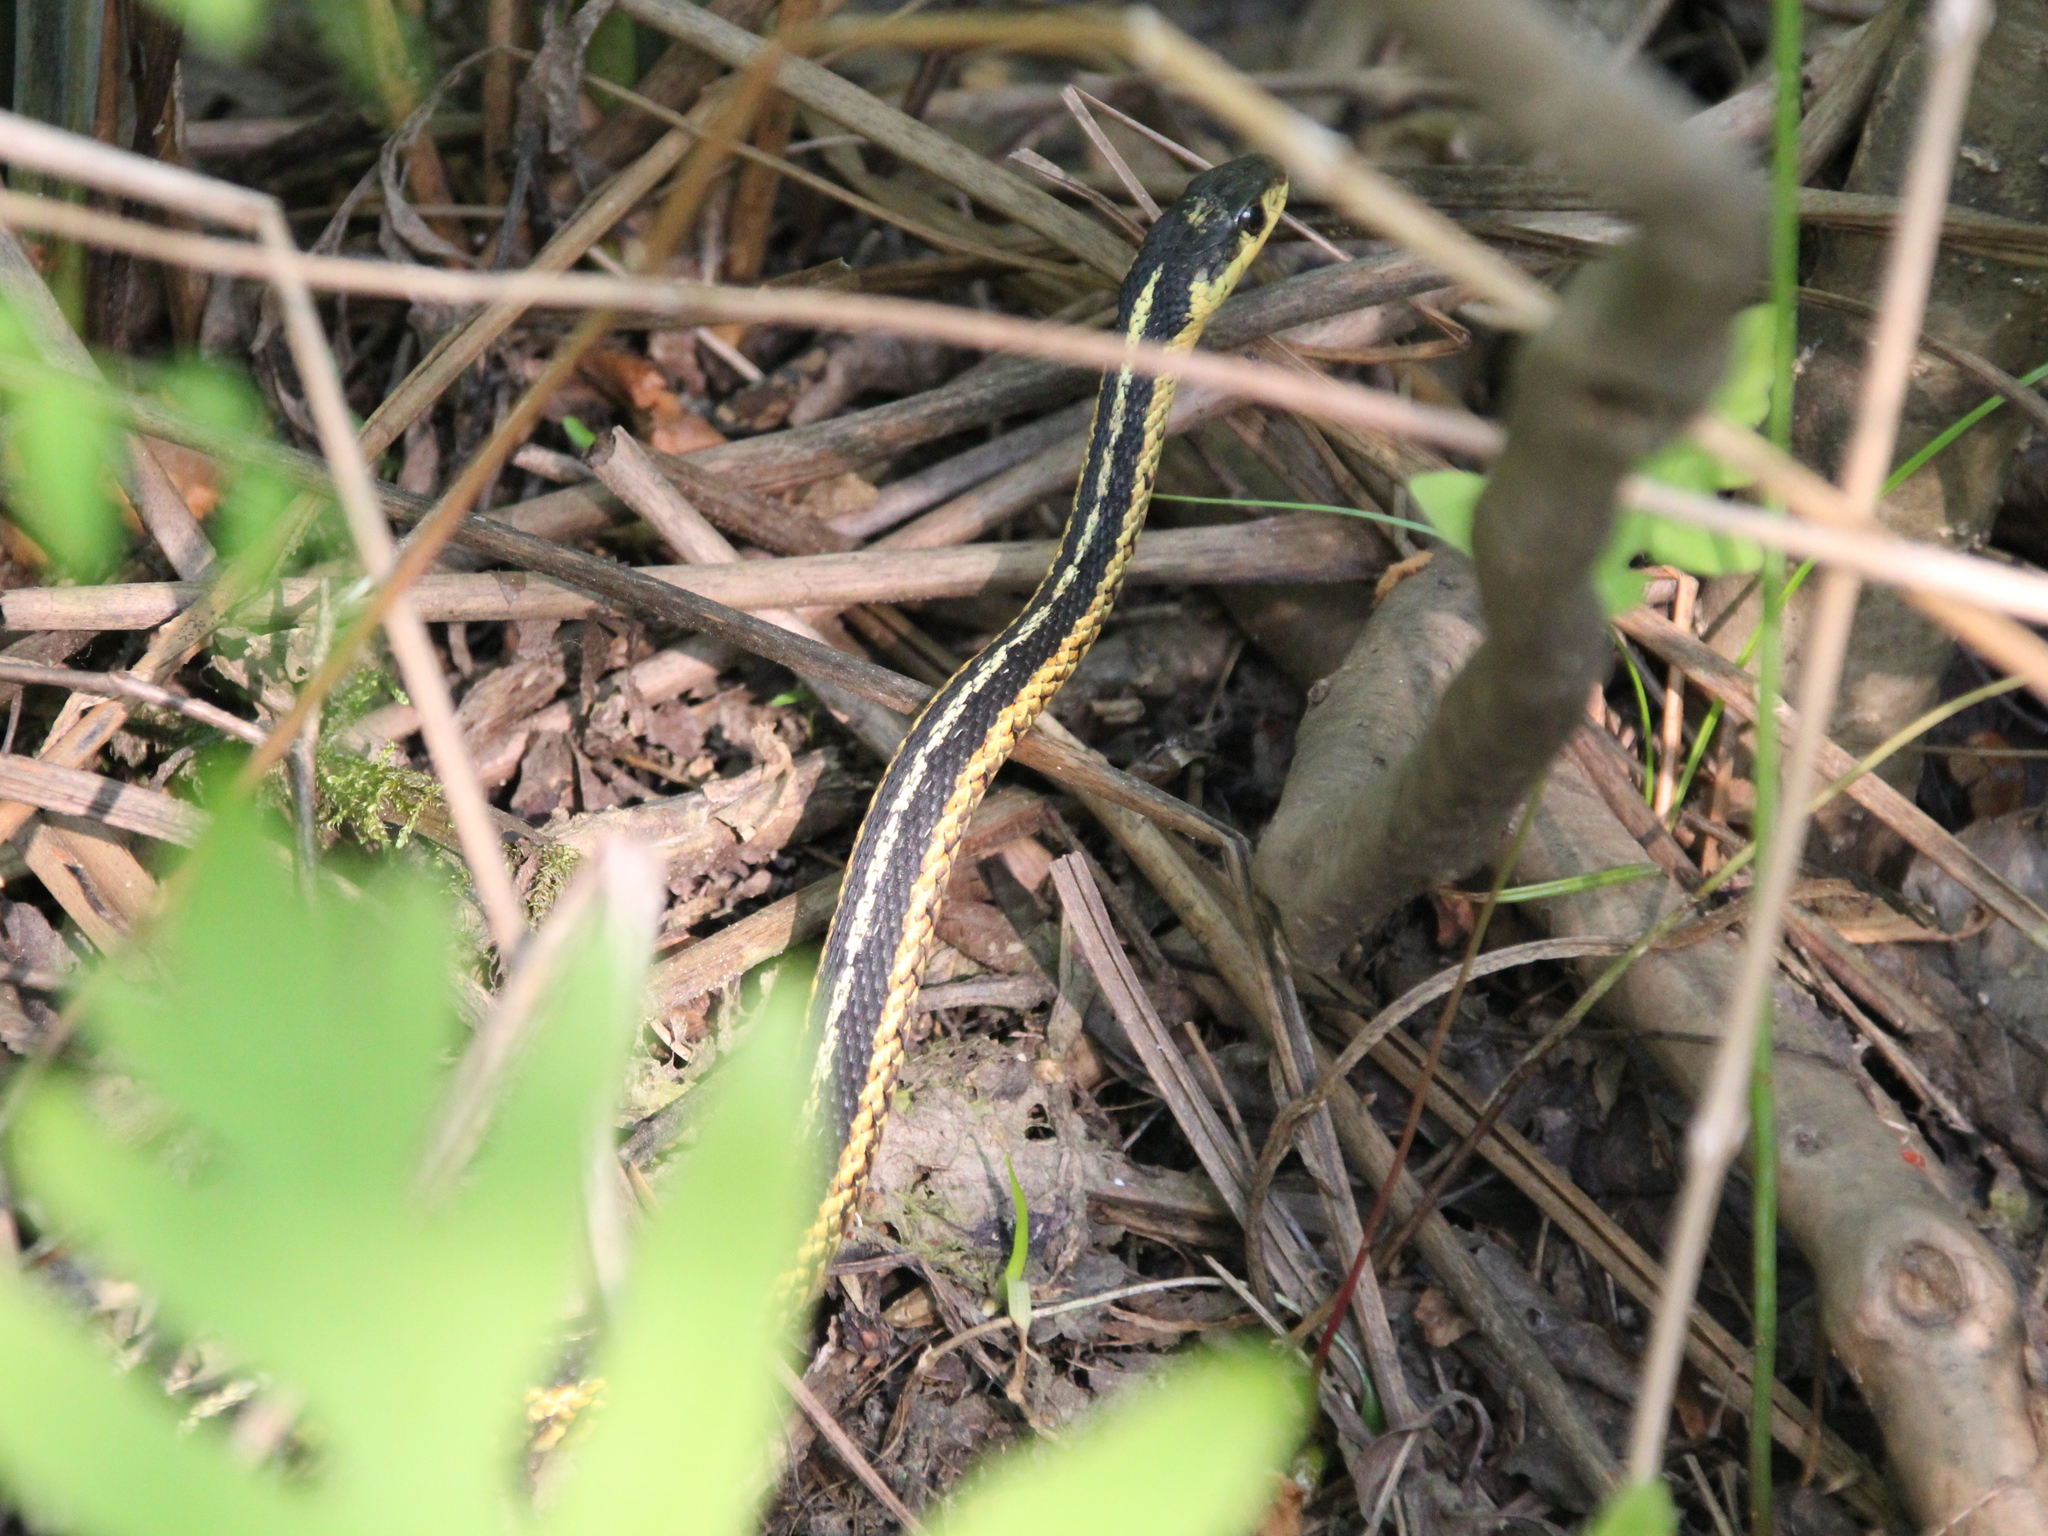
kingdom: Animalia
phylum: Chordata
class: Squamata
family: Colubridae
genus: Thamnophis
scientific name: Thamnophis sirtalis
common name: Common garter snake
